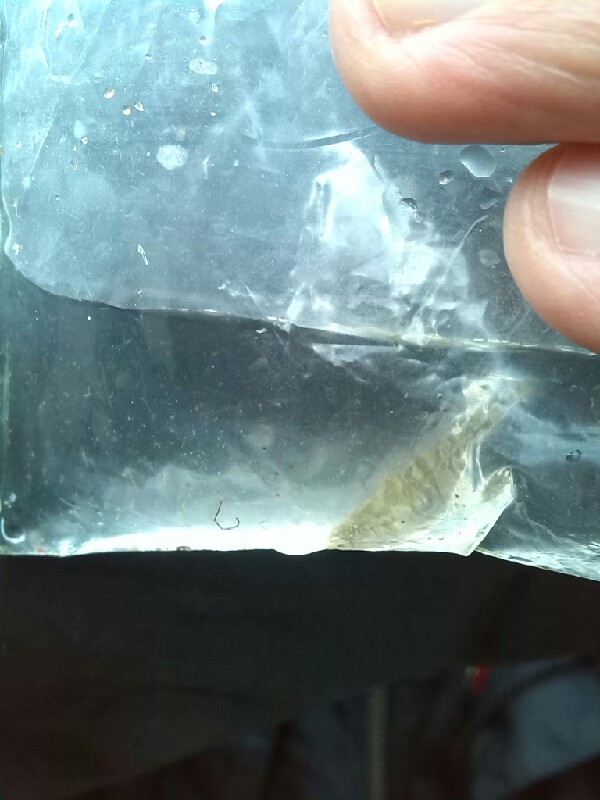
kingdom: Animalia
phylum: Chordata
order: Gasterosteiformes
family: Gasterosteidae
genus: Gasterosteus
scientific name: Gasterosteus aculeatus
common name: Three-spined stickleback
